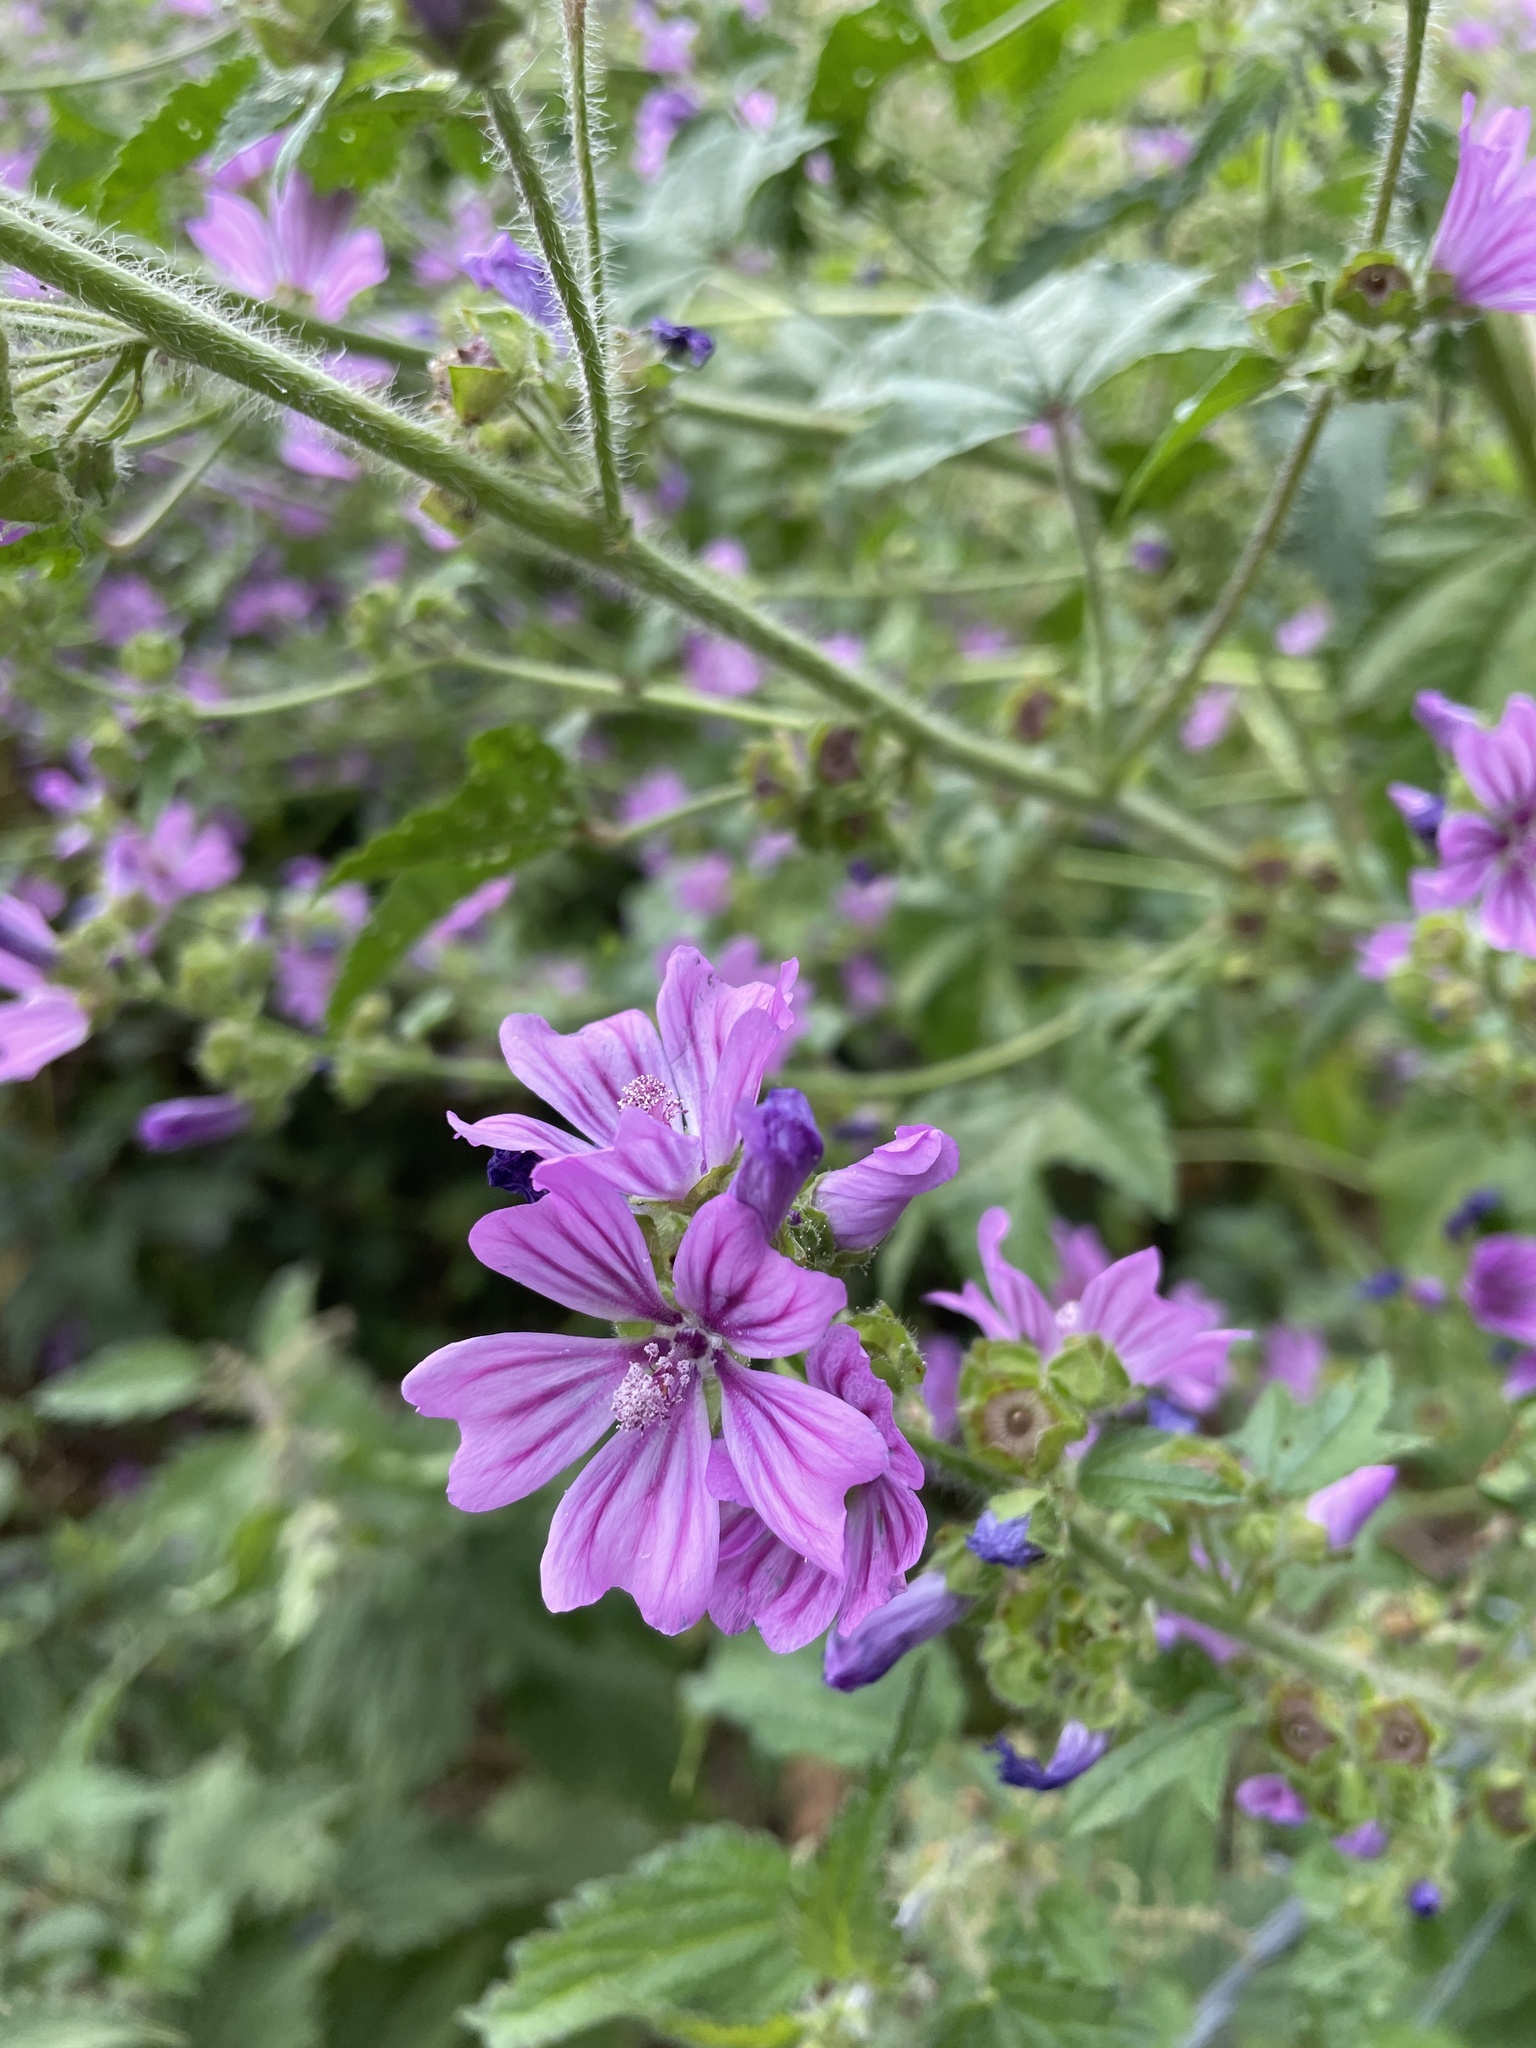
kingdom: Plantae
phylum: Tracheophyta
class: Magnoliopsida
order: Malvales
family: Malvaceae
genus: Malva
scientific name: Malva sylvestris
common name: Common mallow
